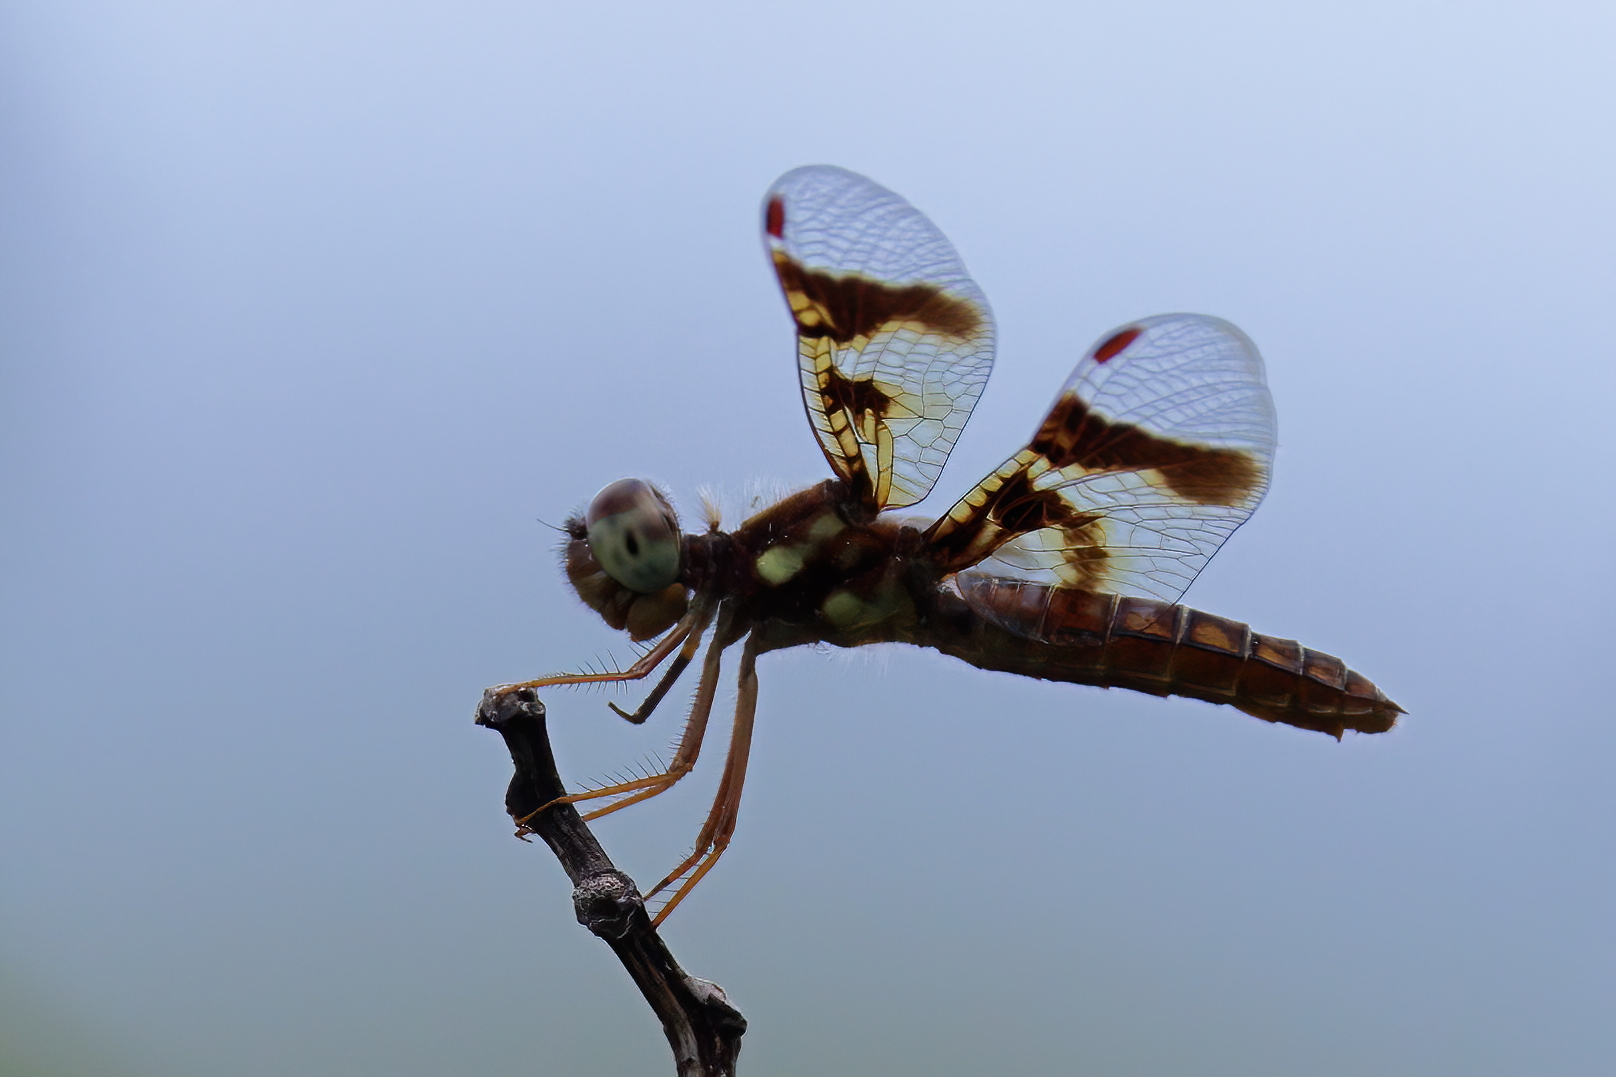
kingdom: Animalia
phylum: Arthropoda
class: Insecta
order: Odonata
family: Libellulidae
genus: Perithemis
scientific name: Perithemis tenera
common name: Eastern amberwing
